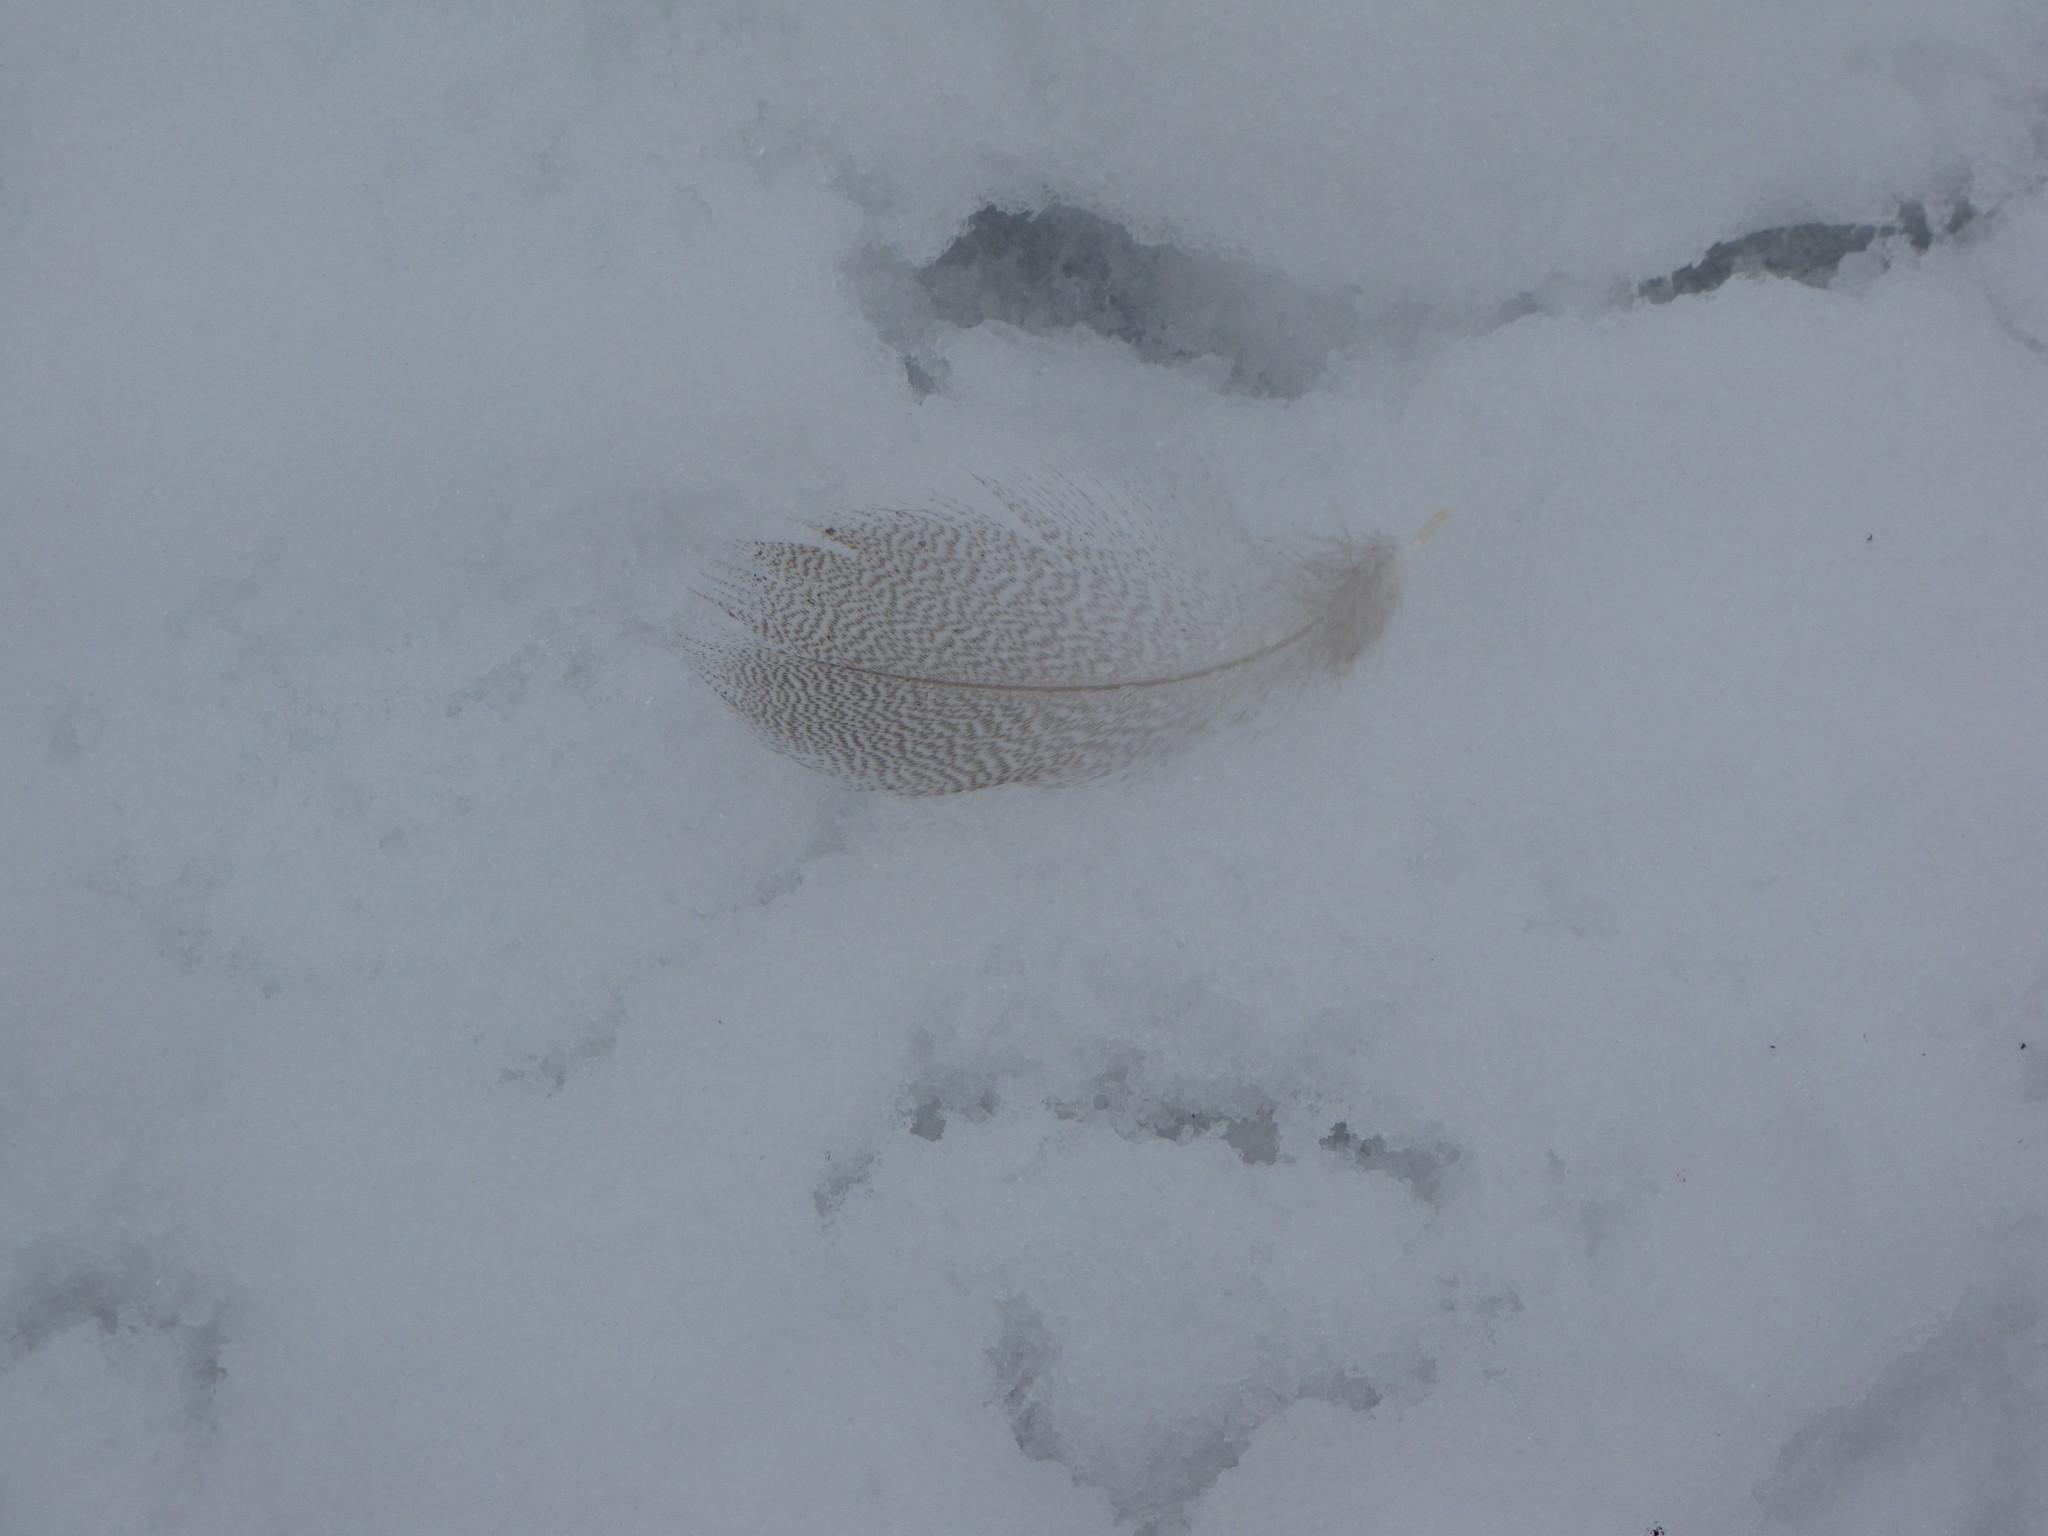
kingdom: Animalia
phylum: Chordata
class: Aves
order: Anseriformes
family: Anatidae
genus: Anas
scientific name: Anas platyrhynchos
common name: Mallard
